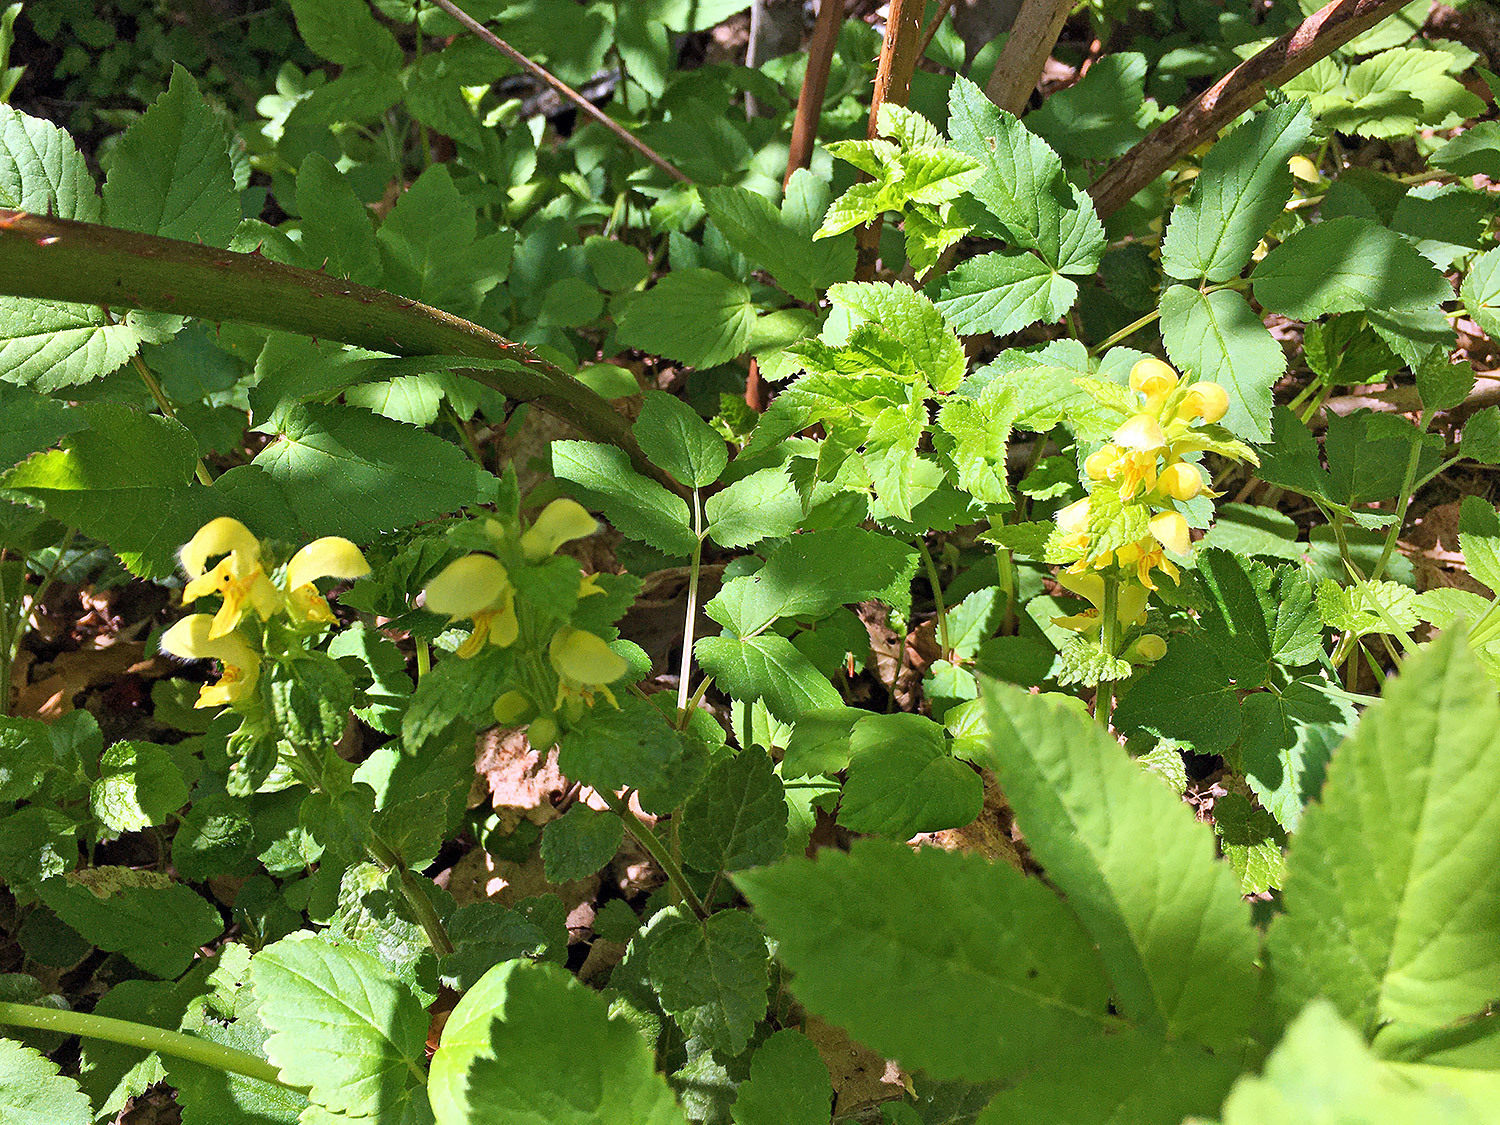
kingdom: Plantae
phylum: Tracheophyta
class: Magnoliopsida
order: Lamiales
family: Lamiaceae
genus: Lamium
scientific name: Lamium galeobdolon
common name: Yellow archangel
